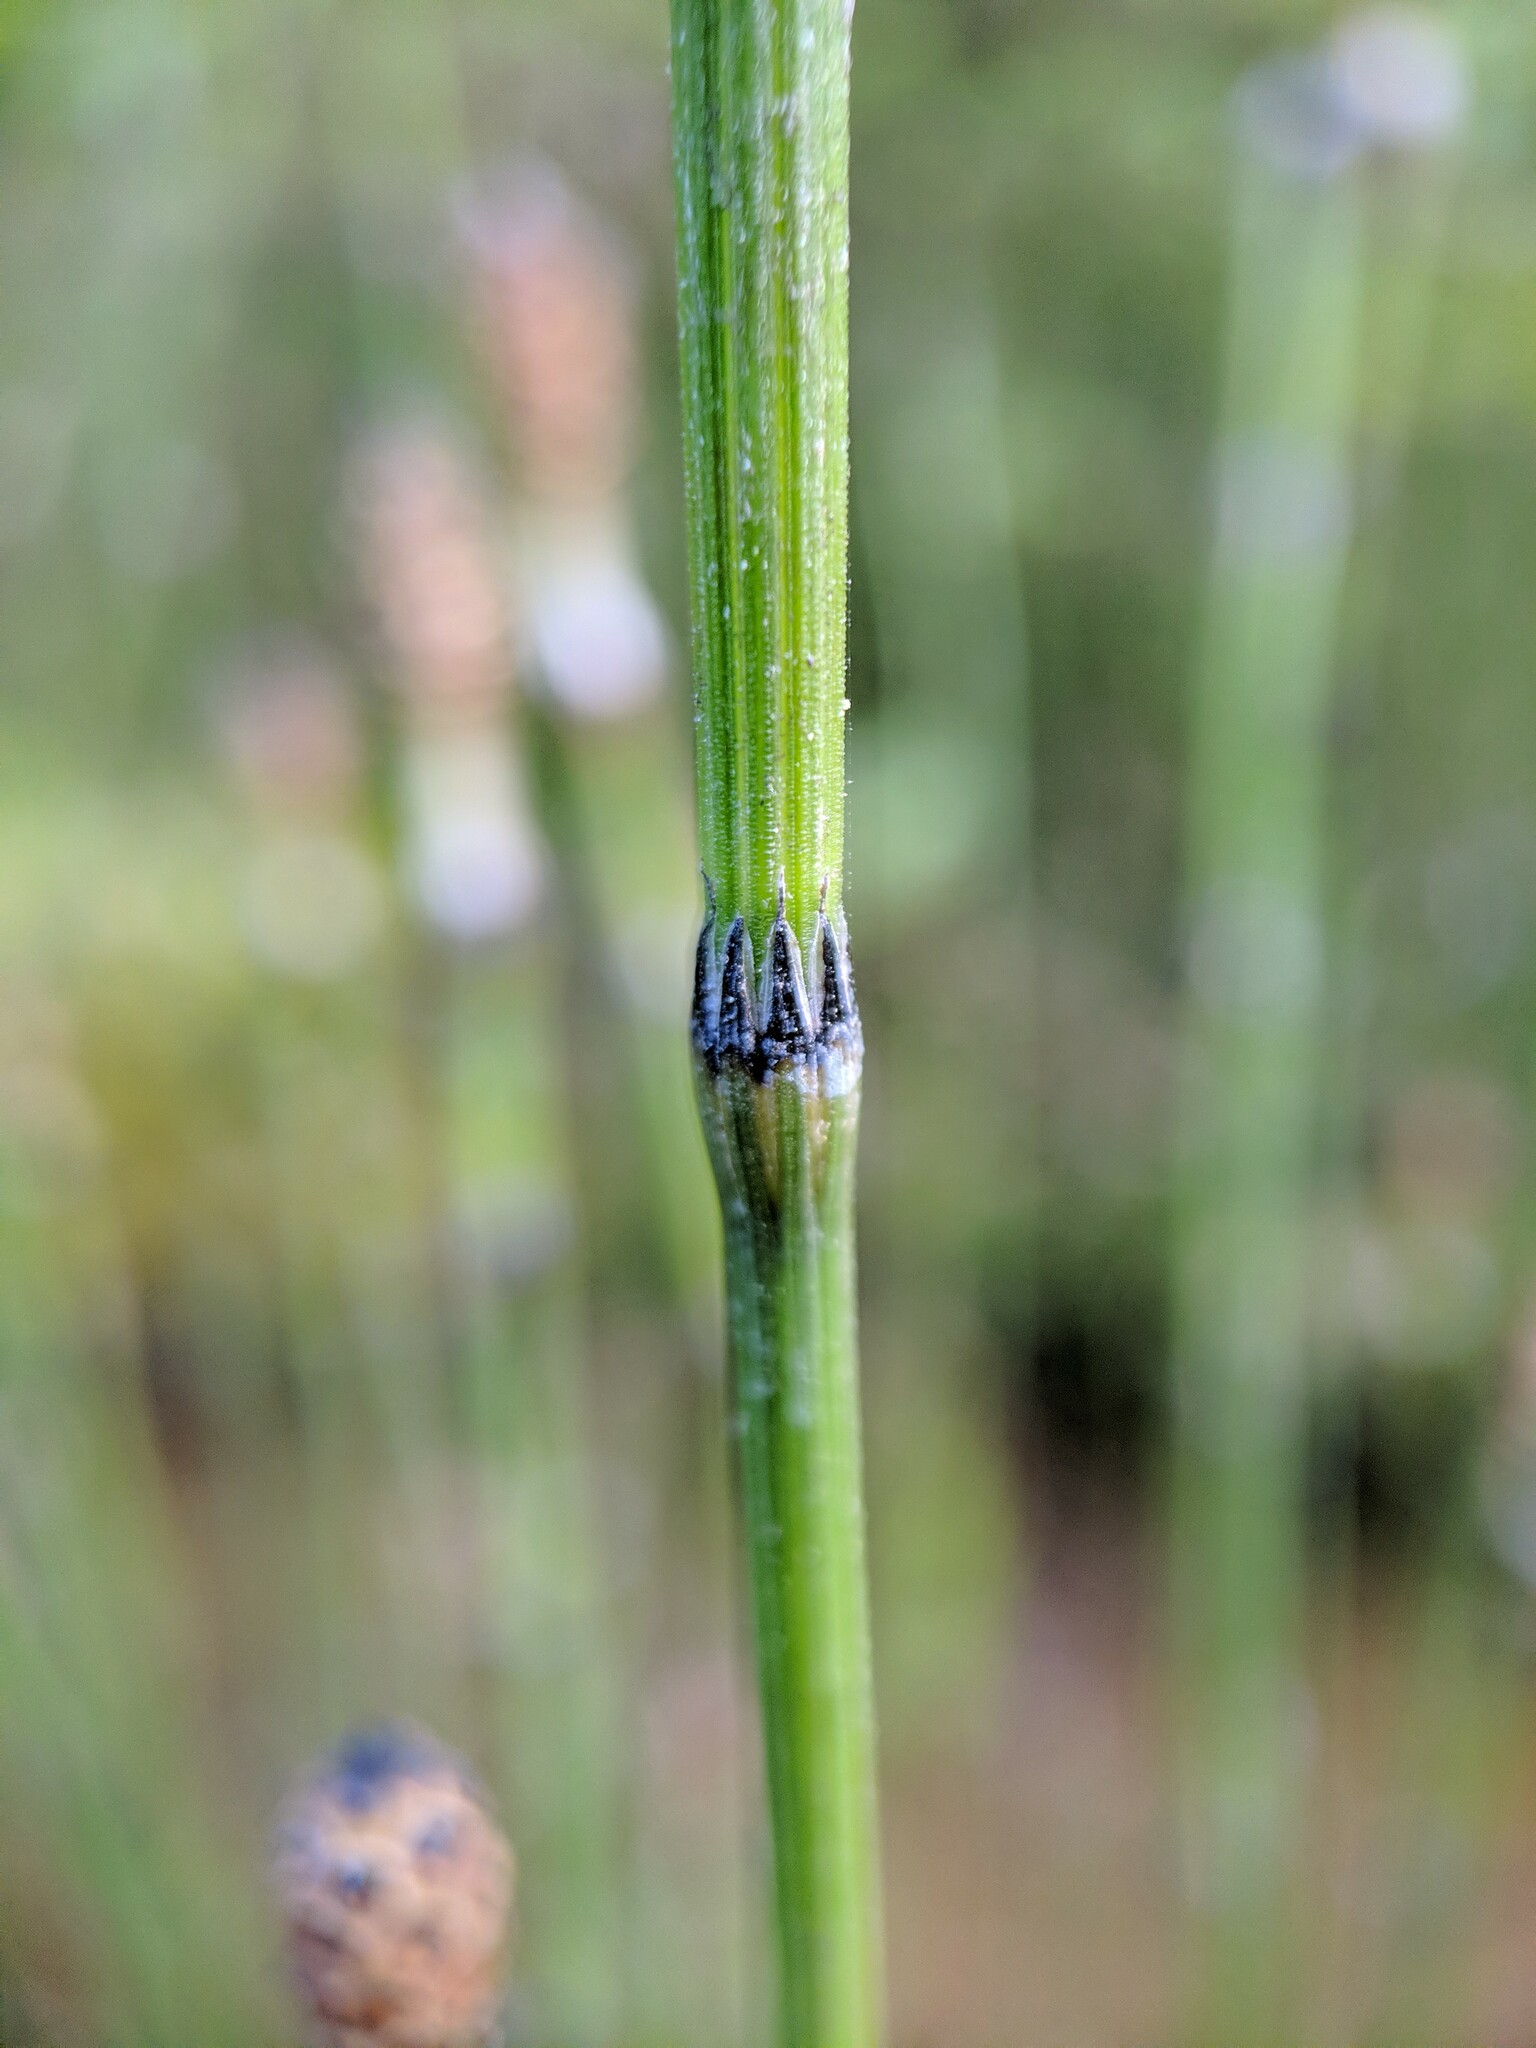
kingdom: Plantae
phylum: Tracheophyta
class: Polypodiopsida
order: Equisetales
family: Equisetaceae
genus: Equisetum
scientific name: Equisetum variegatum
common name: Variegated horsetail
